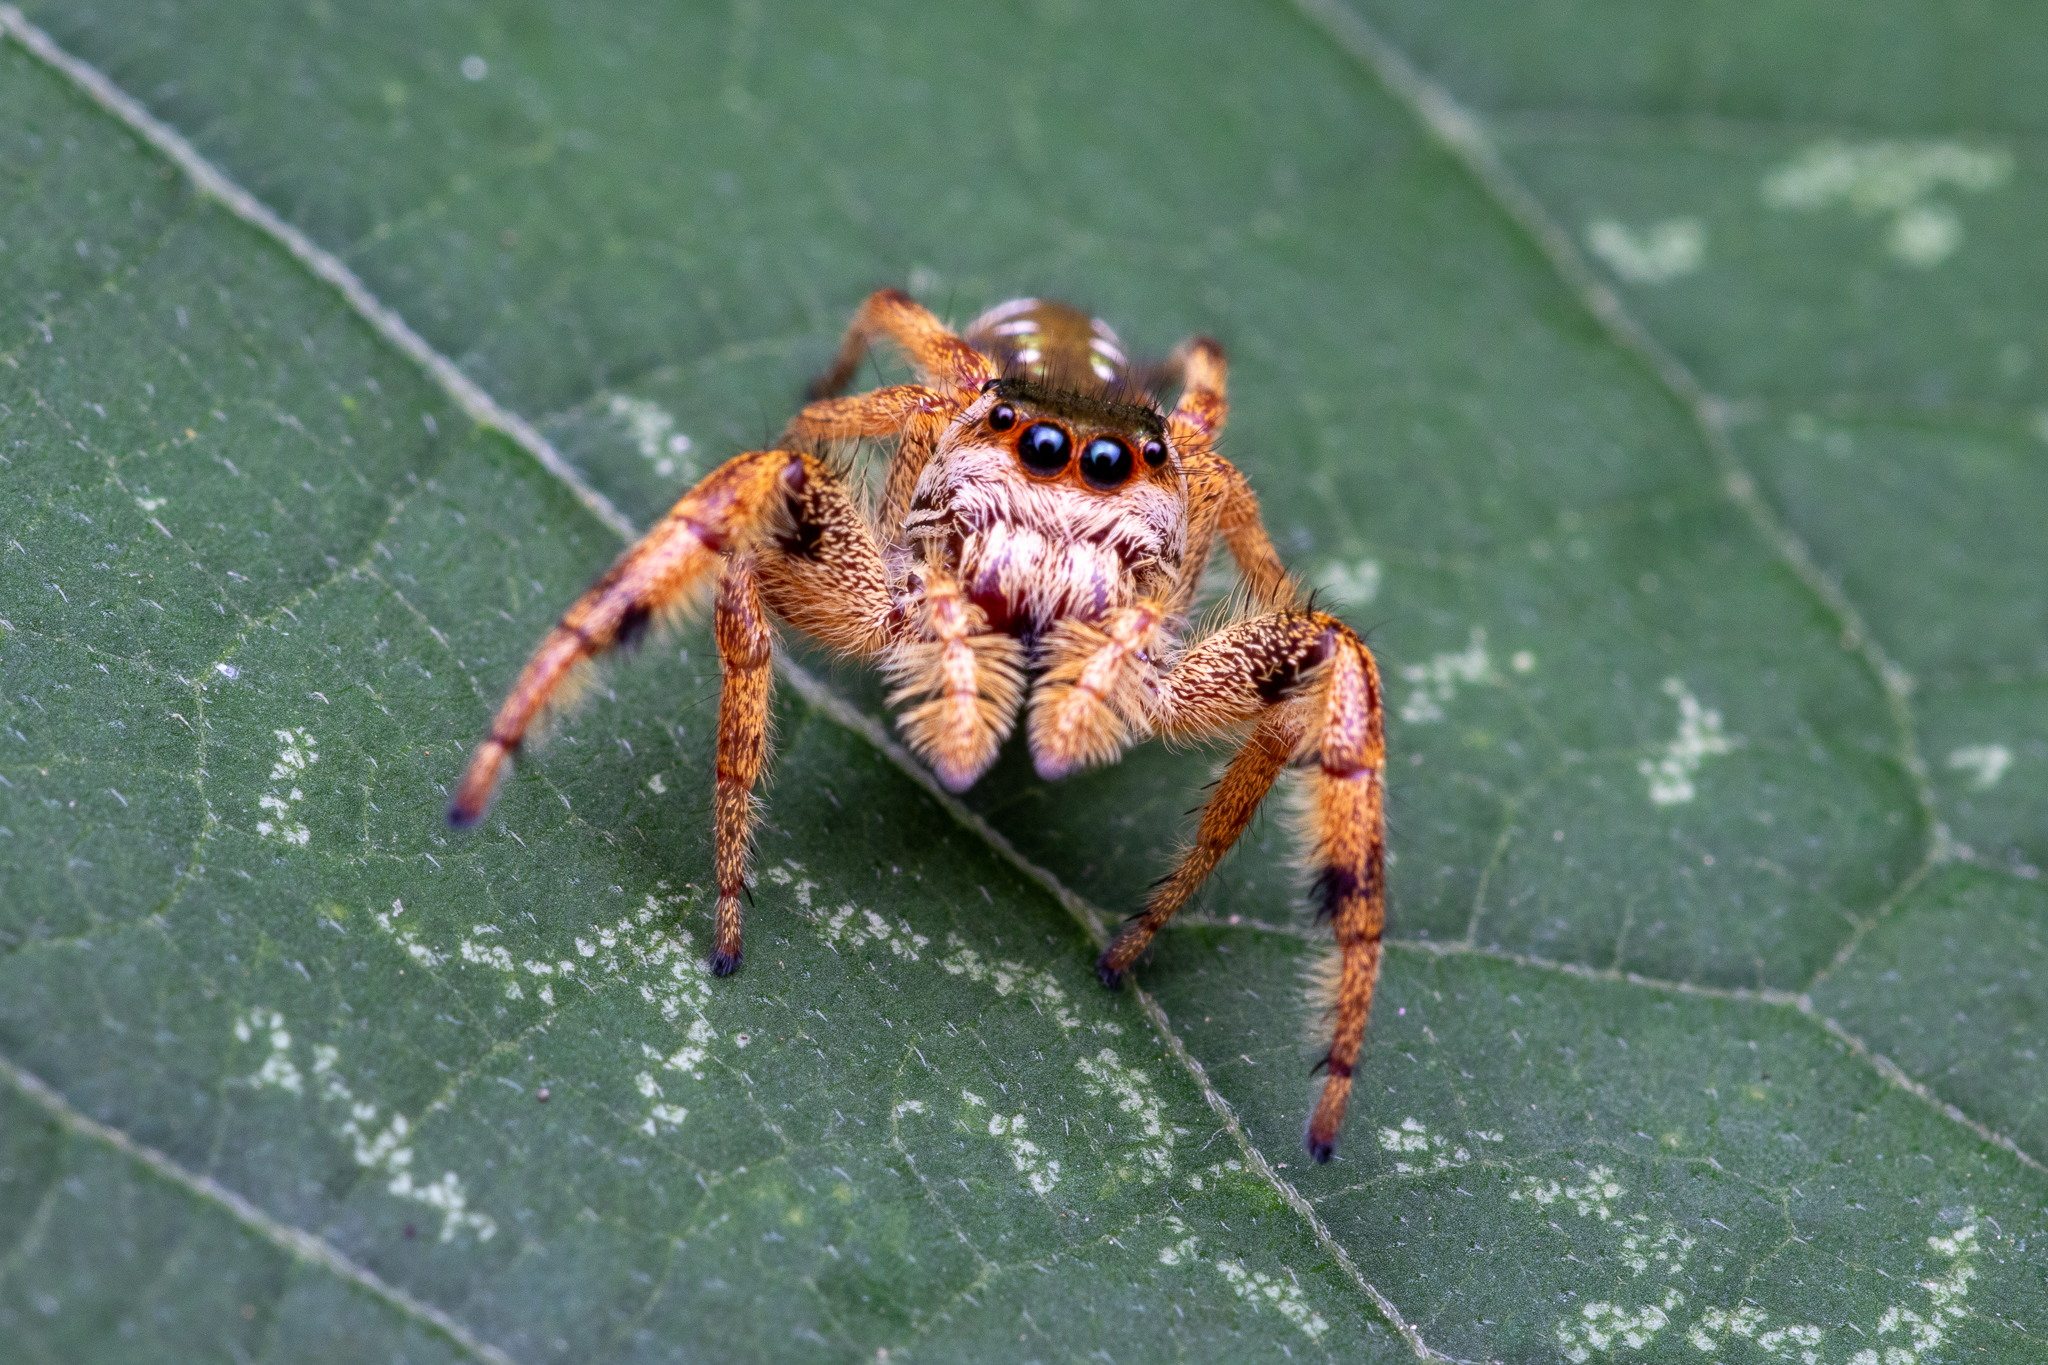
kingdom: Animalia
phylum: Arthropoda
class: Arachnida
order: Araneae
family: Salticidae
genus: Paraphidippus
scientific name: Paraphidippus aurantius
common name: Jumping spiders
